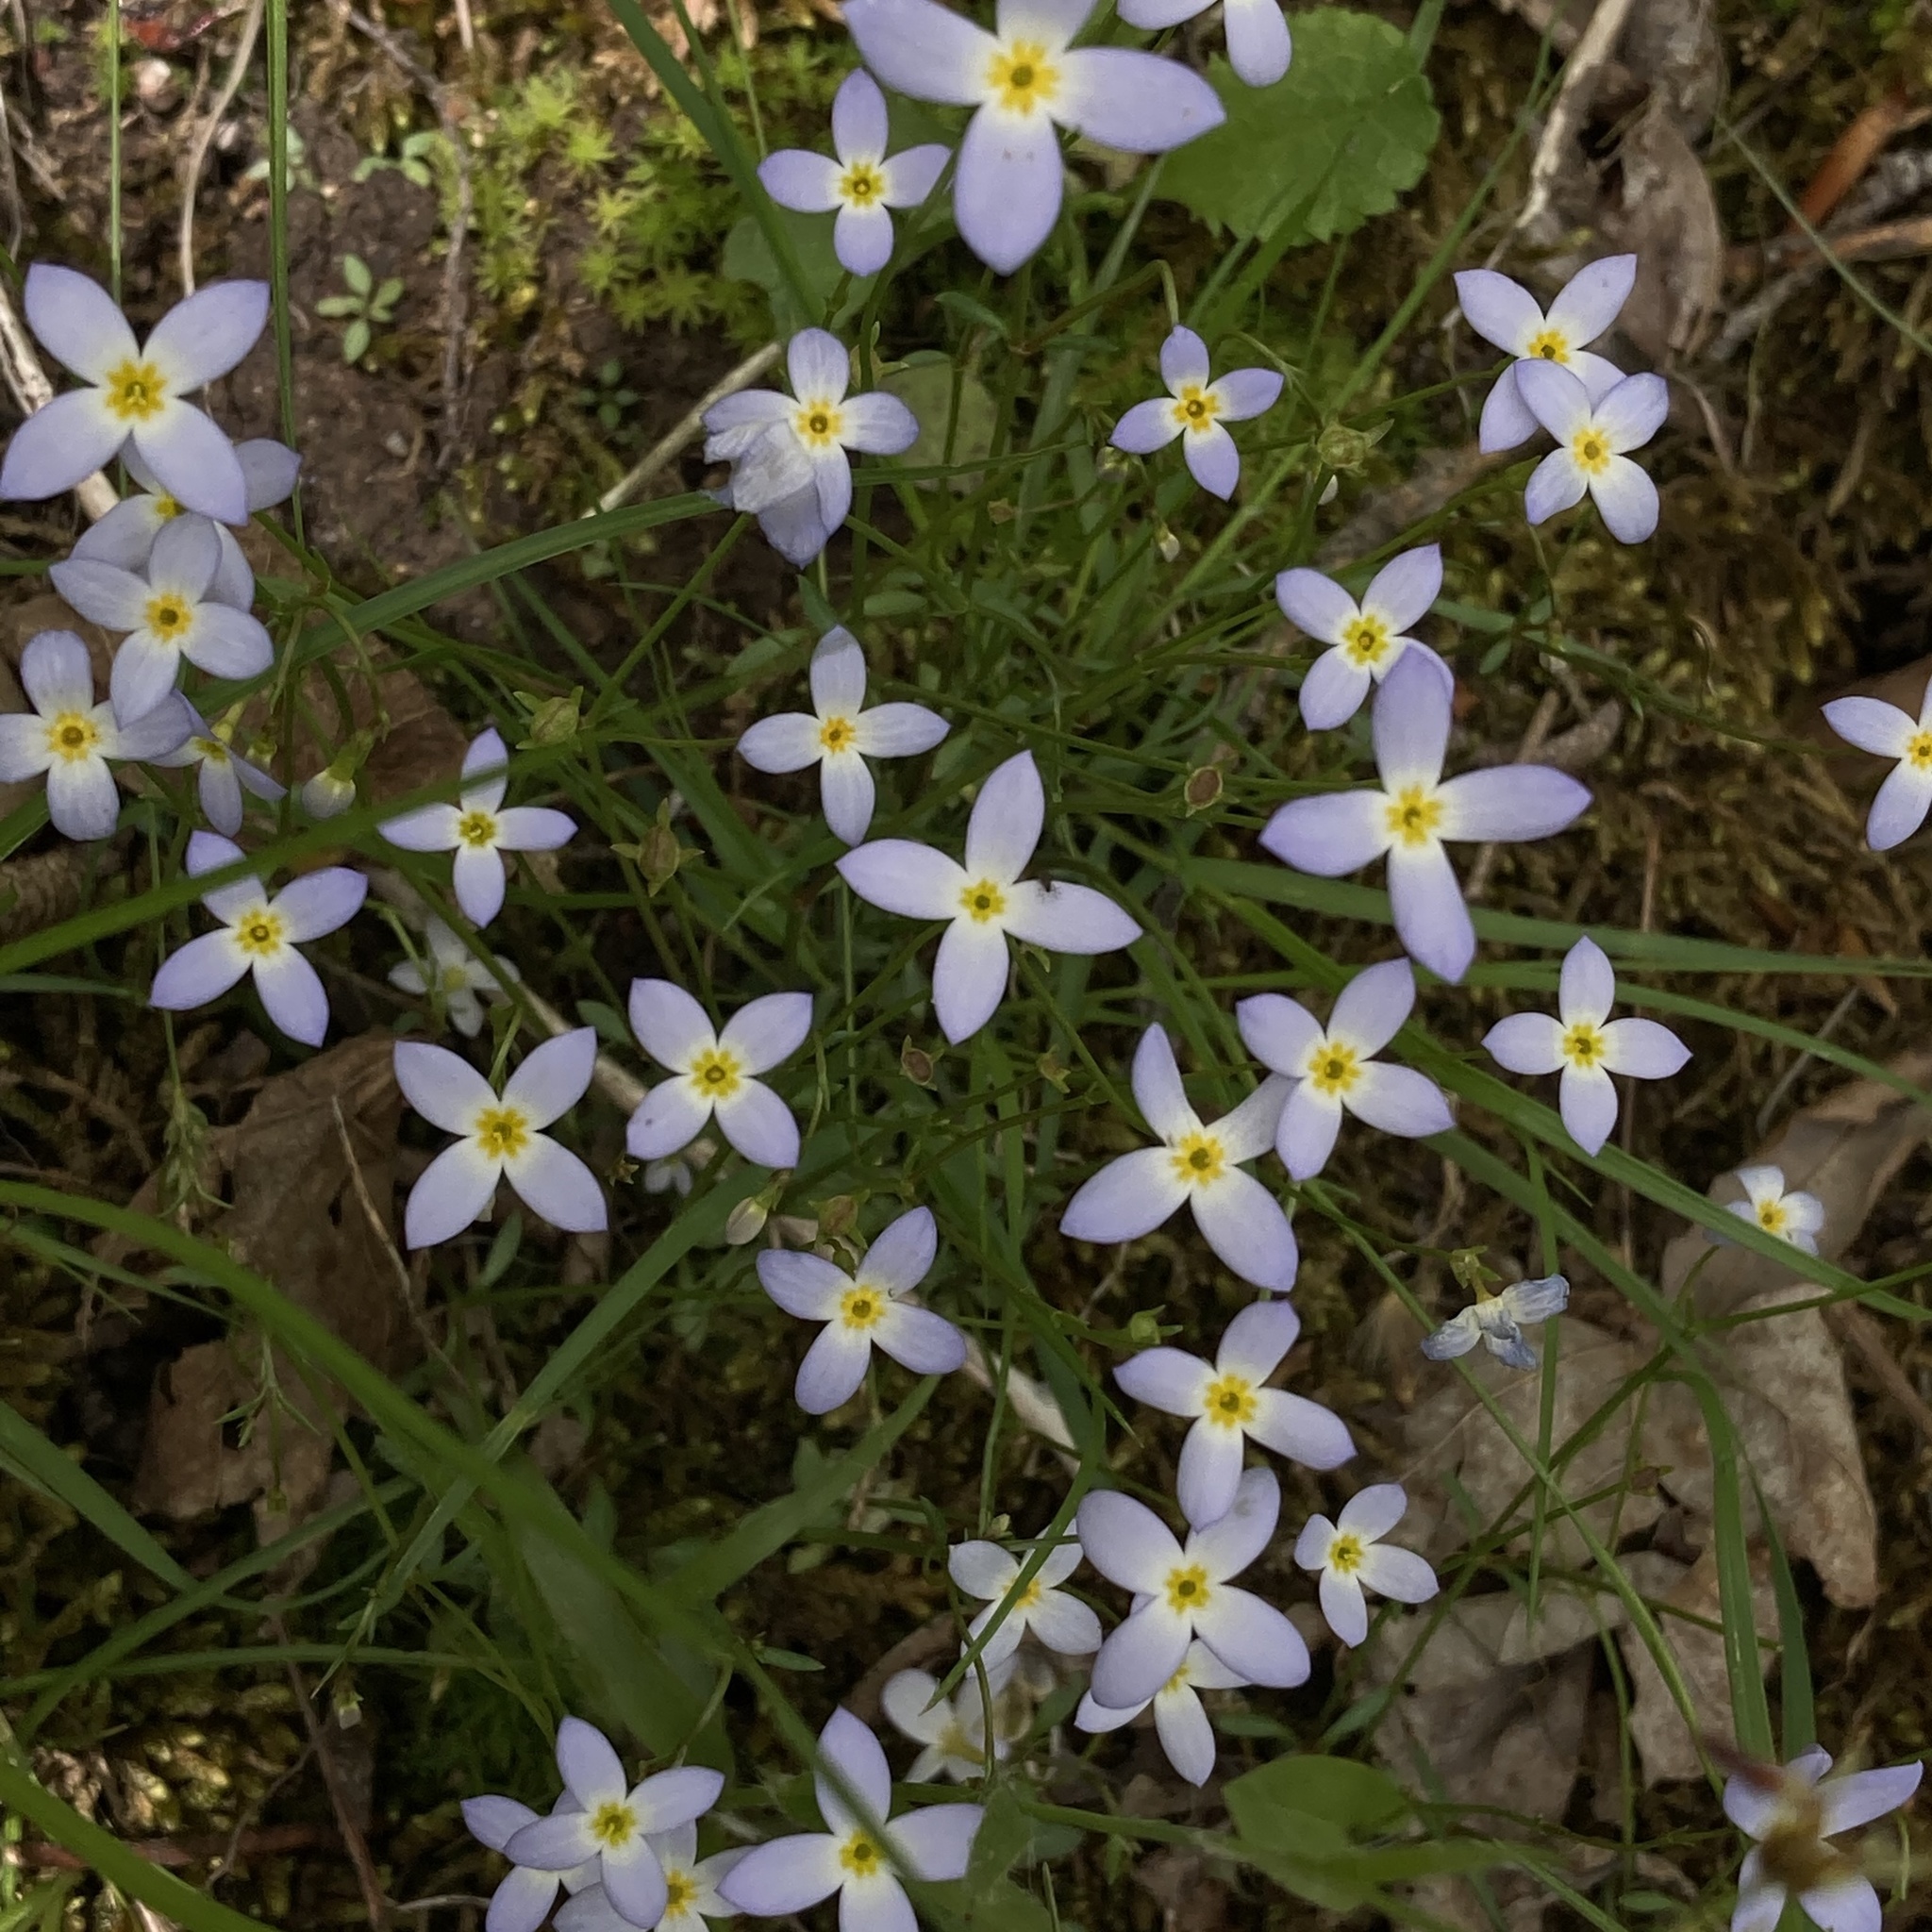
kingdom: Plantae
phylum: Tracheophyta
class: Magnoliopsida
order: Gentianales
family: Rubiaceae
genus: Houstonia
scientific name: Houstonia caerulea
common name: Bluets
